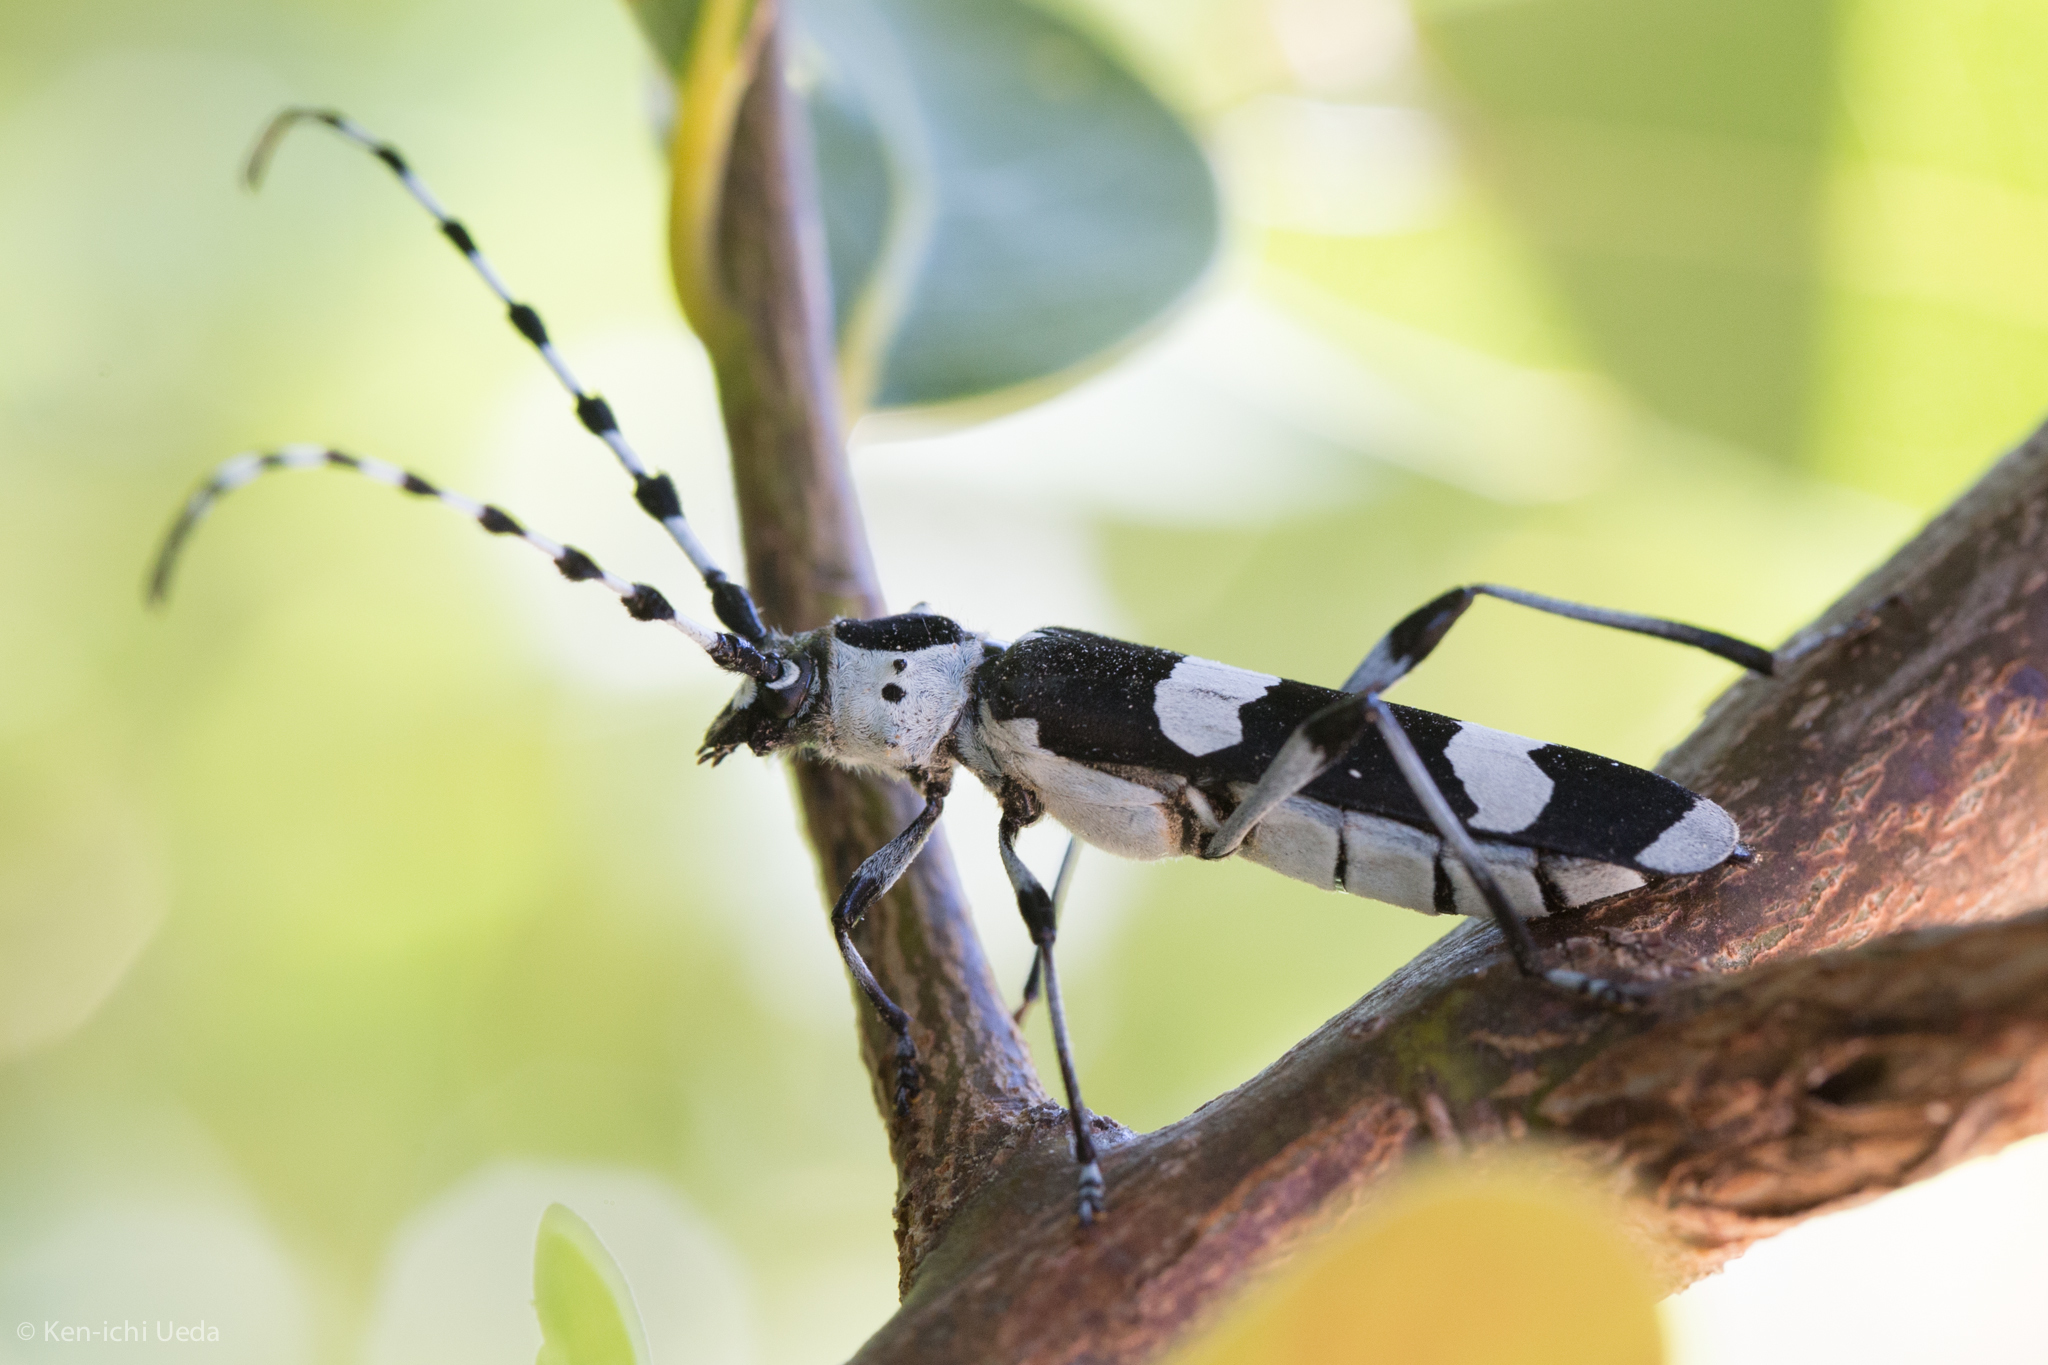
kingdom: Animalia
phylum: Arthropoda
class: Insecta
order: Coleoptera
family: Cerambycidae
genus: Rosalia
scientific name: Rosalia funebris
